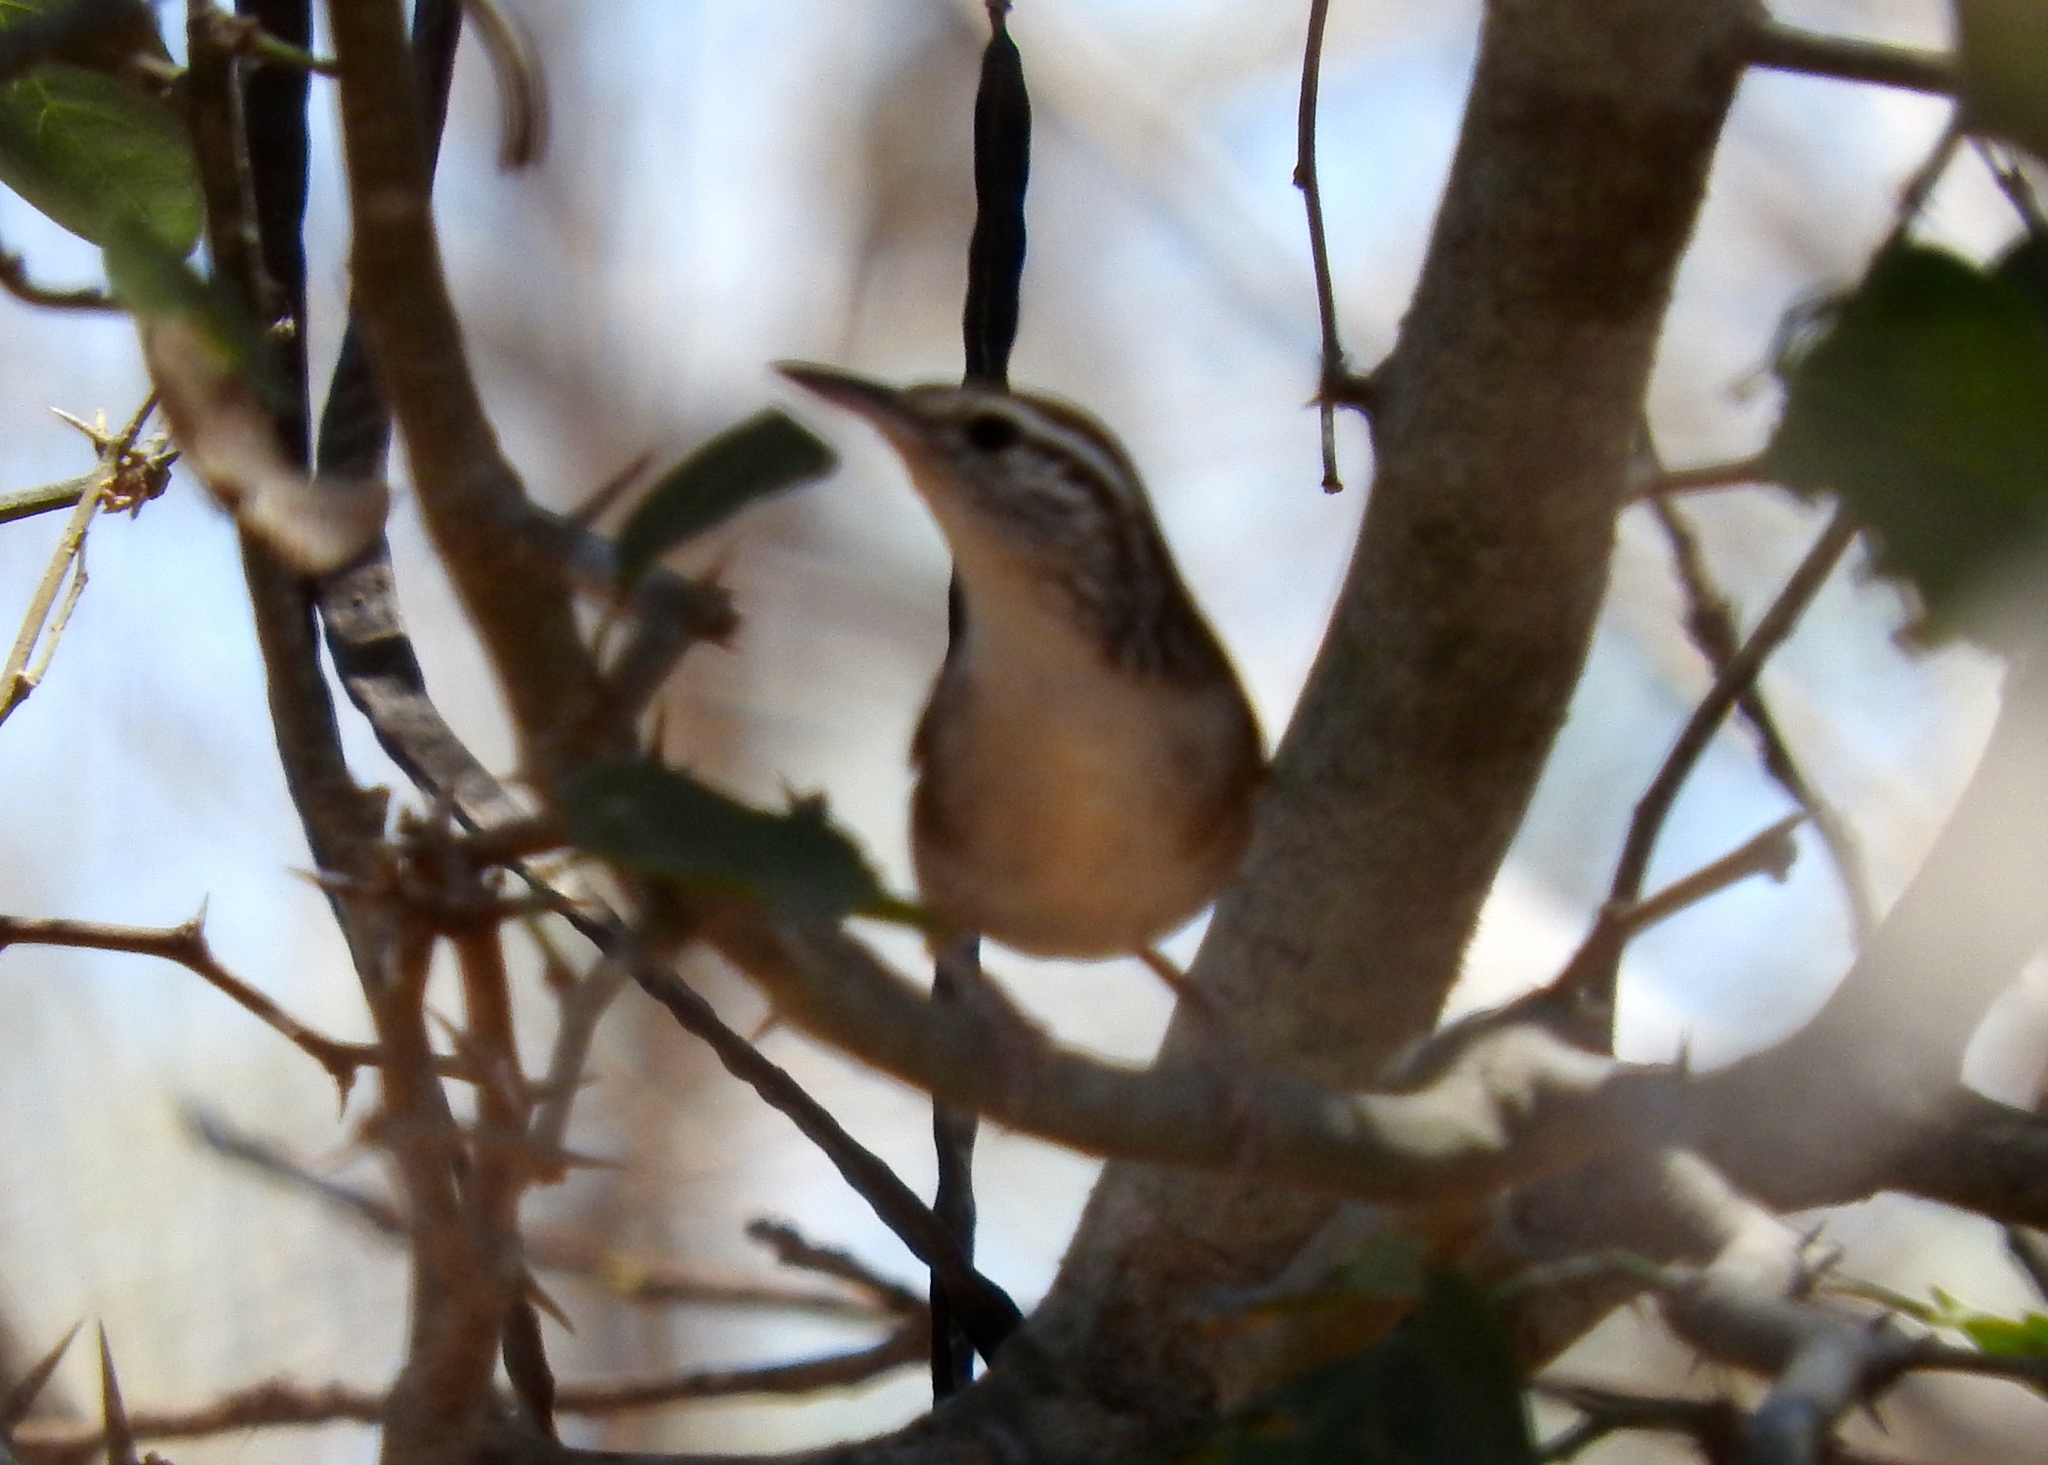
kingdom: Animalia
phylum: Chordata
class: Aves
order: Passeriformes
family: Troglodytidae
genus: Thryophilus
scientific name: Thryophilus sinaloa
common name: Sinaloa wren
